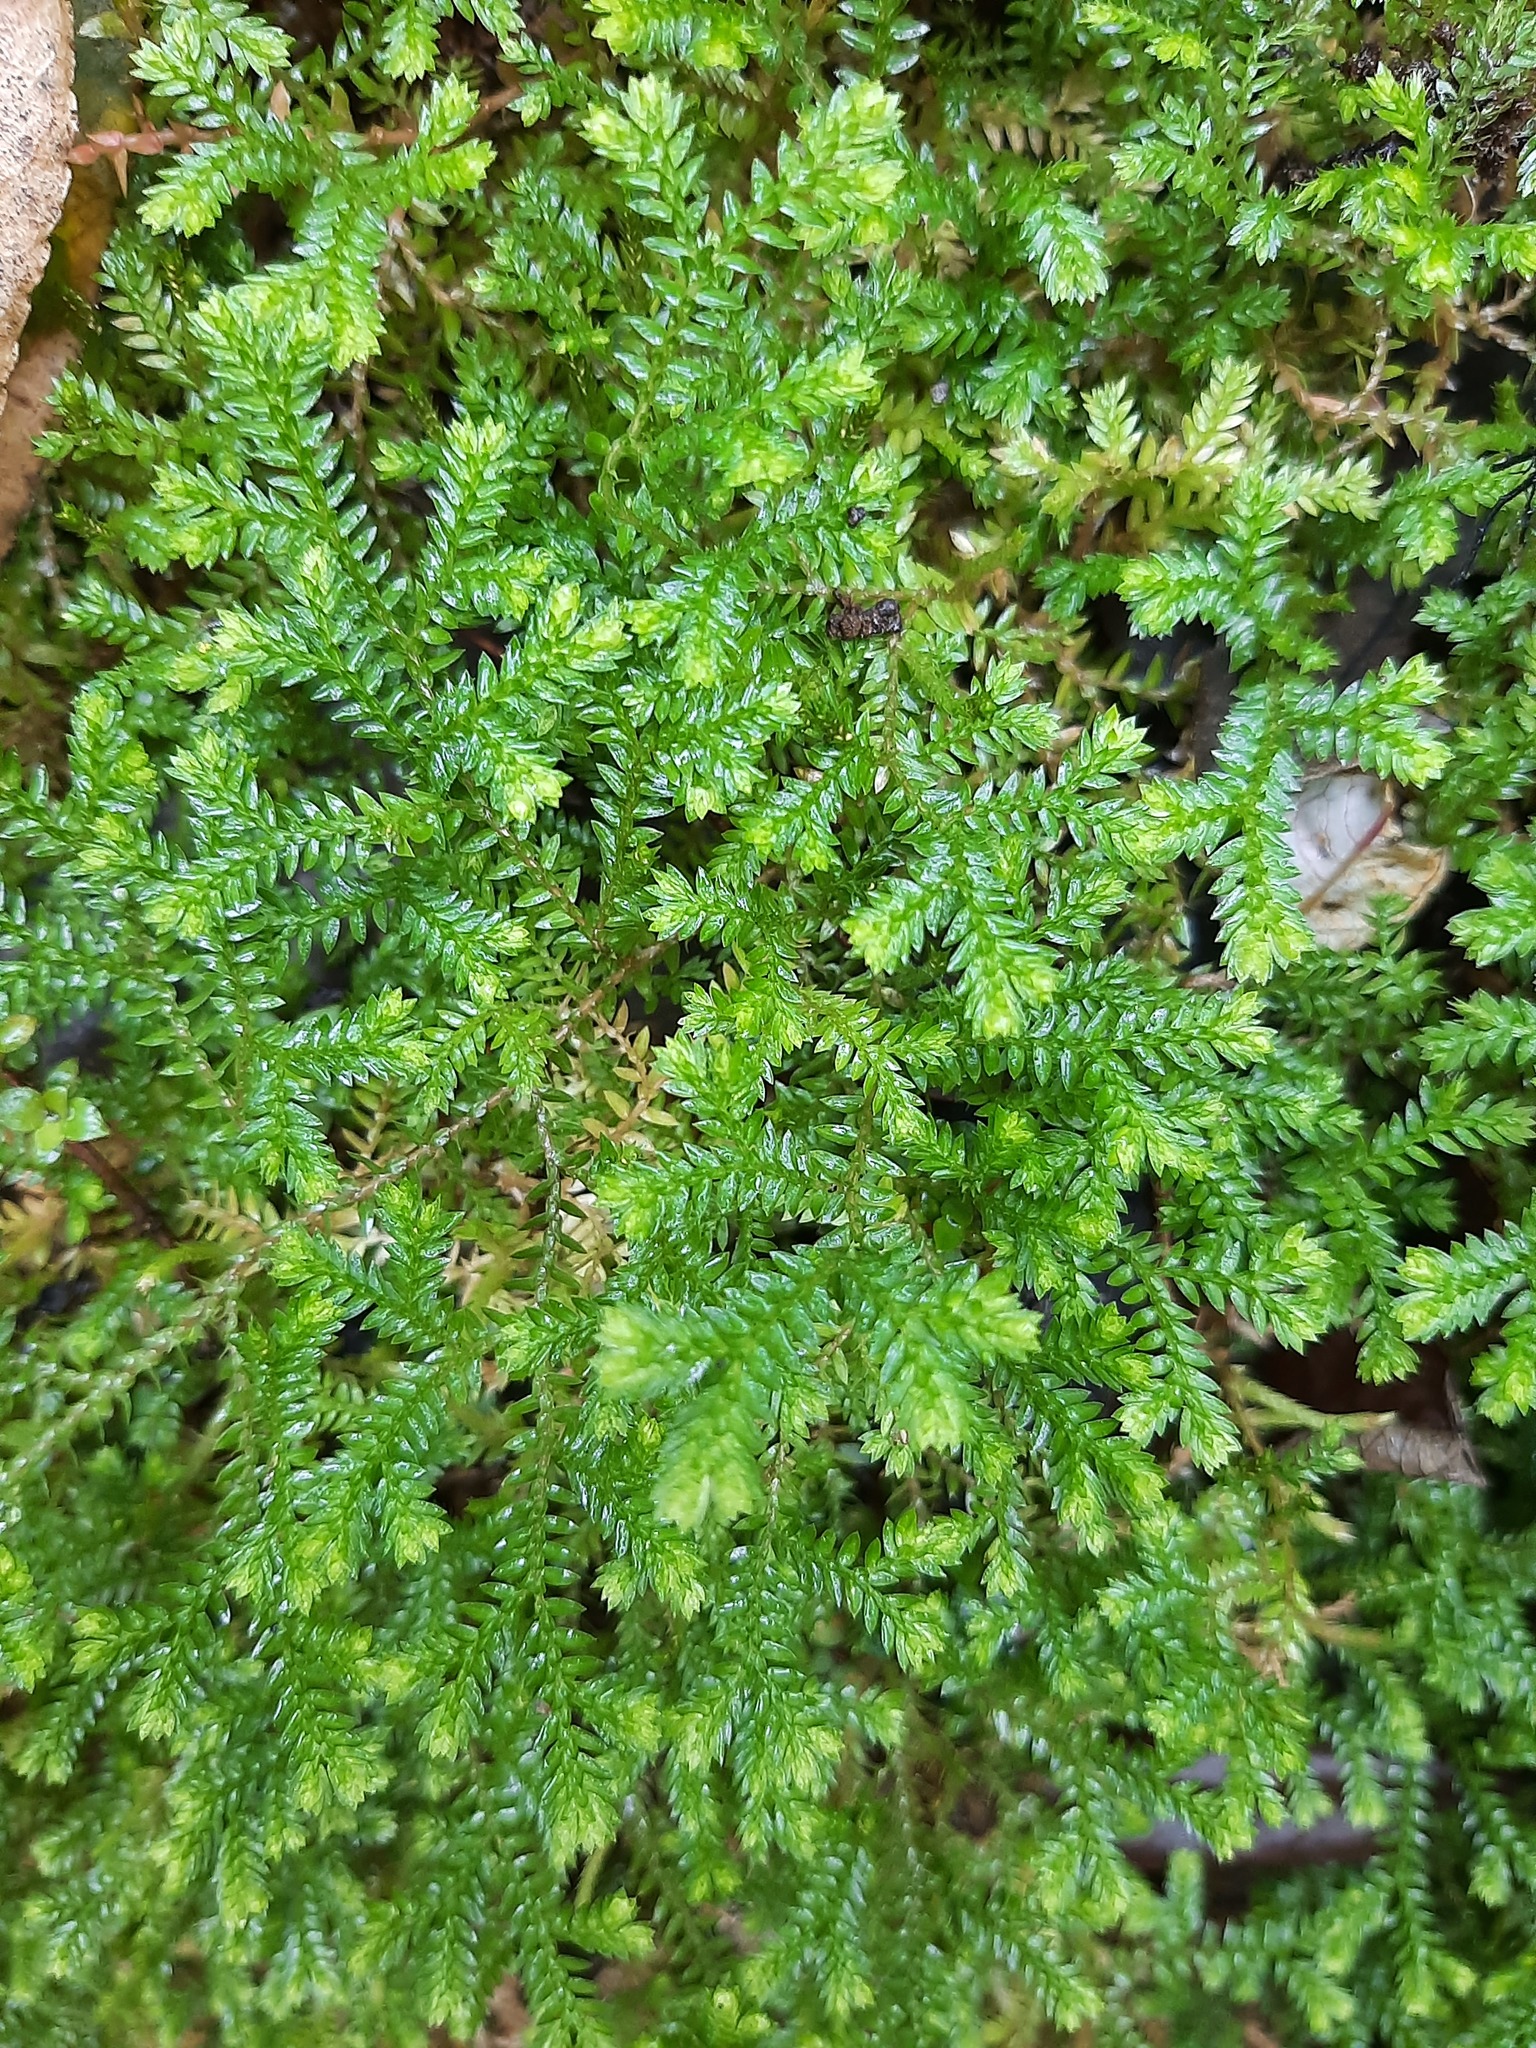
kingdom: Plantae
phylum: Tracheophyta
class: Lycopodiopsida
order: Selaginellales
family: Selaginellaceae
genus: Selaginella
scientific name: Selaginella kraussiana
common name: Krauss' spikemoss
